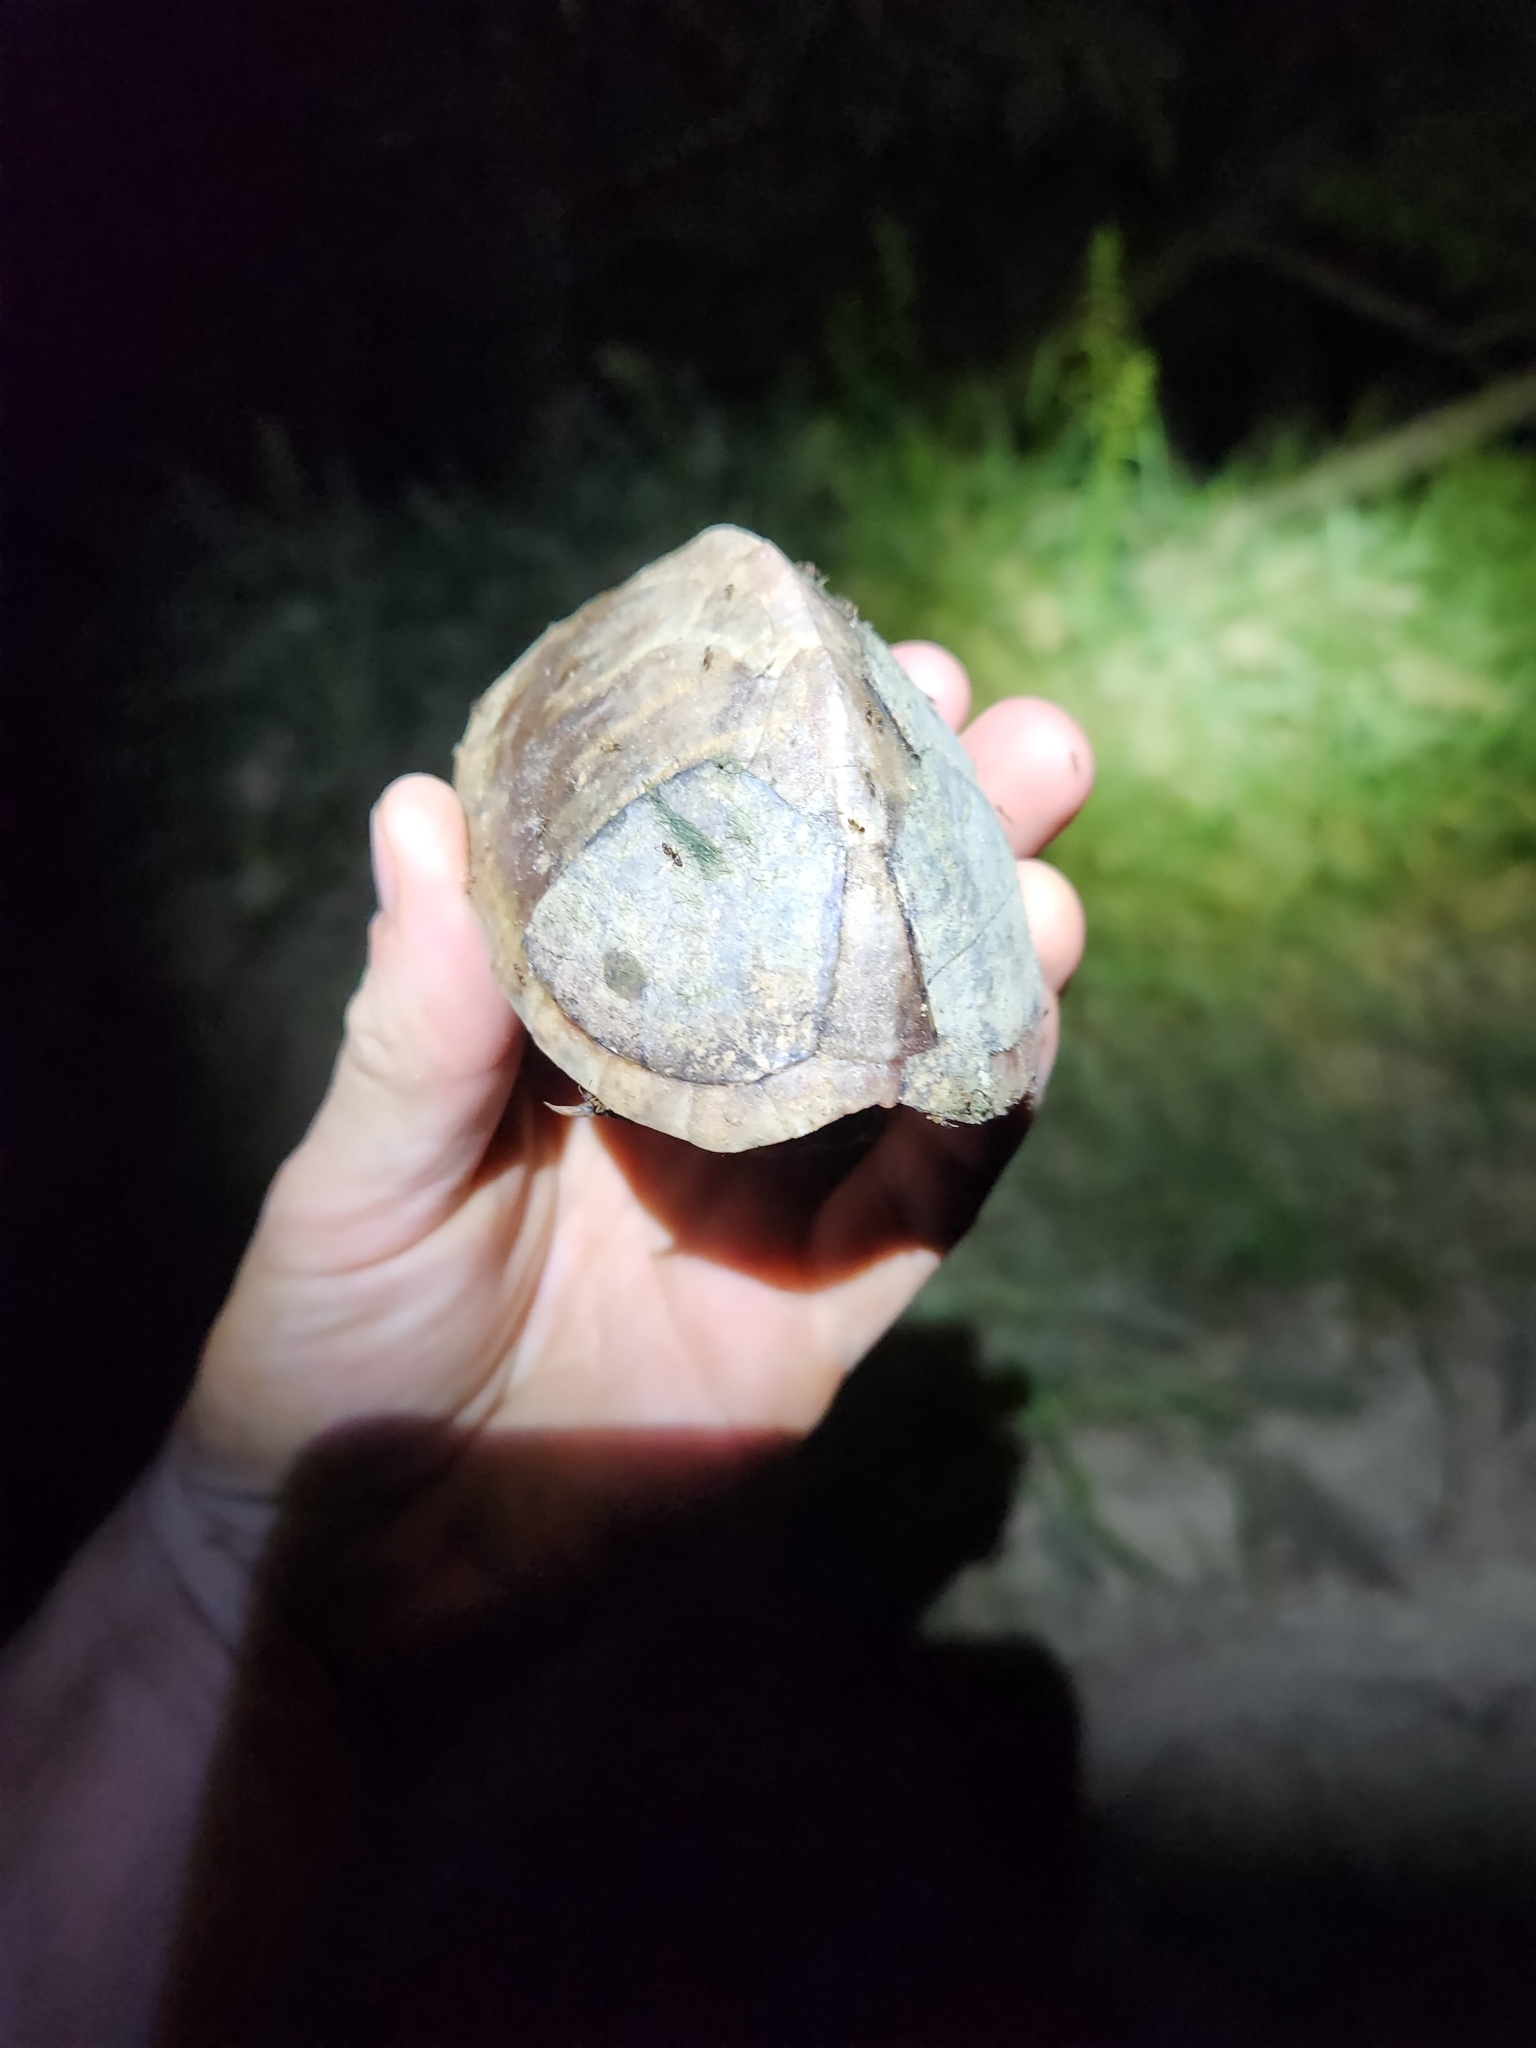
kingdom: Animalia
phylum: Chordata
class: Testudines
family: Kinosternidae
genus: Sternotherus
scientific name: Sternotherus carinatus
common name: Razor-backed musk turtle
